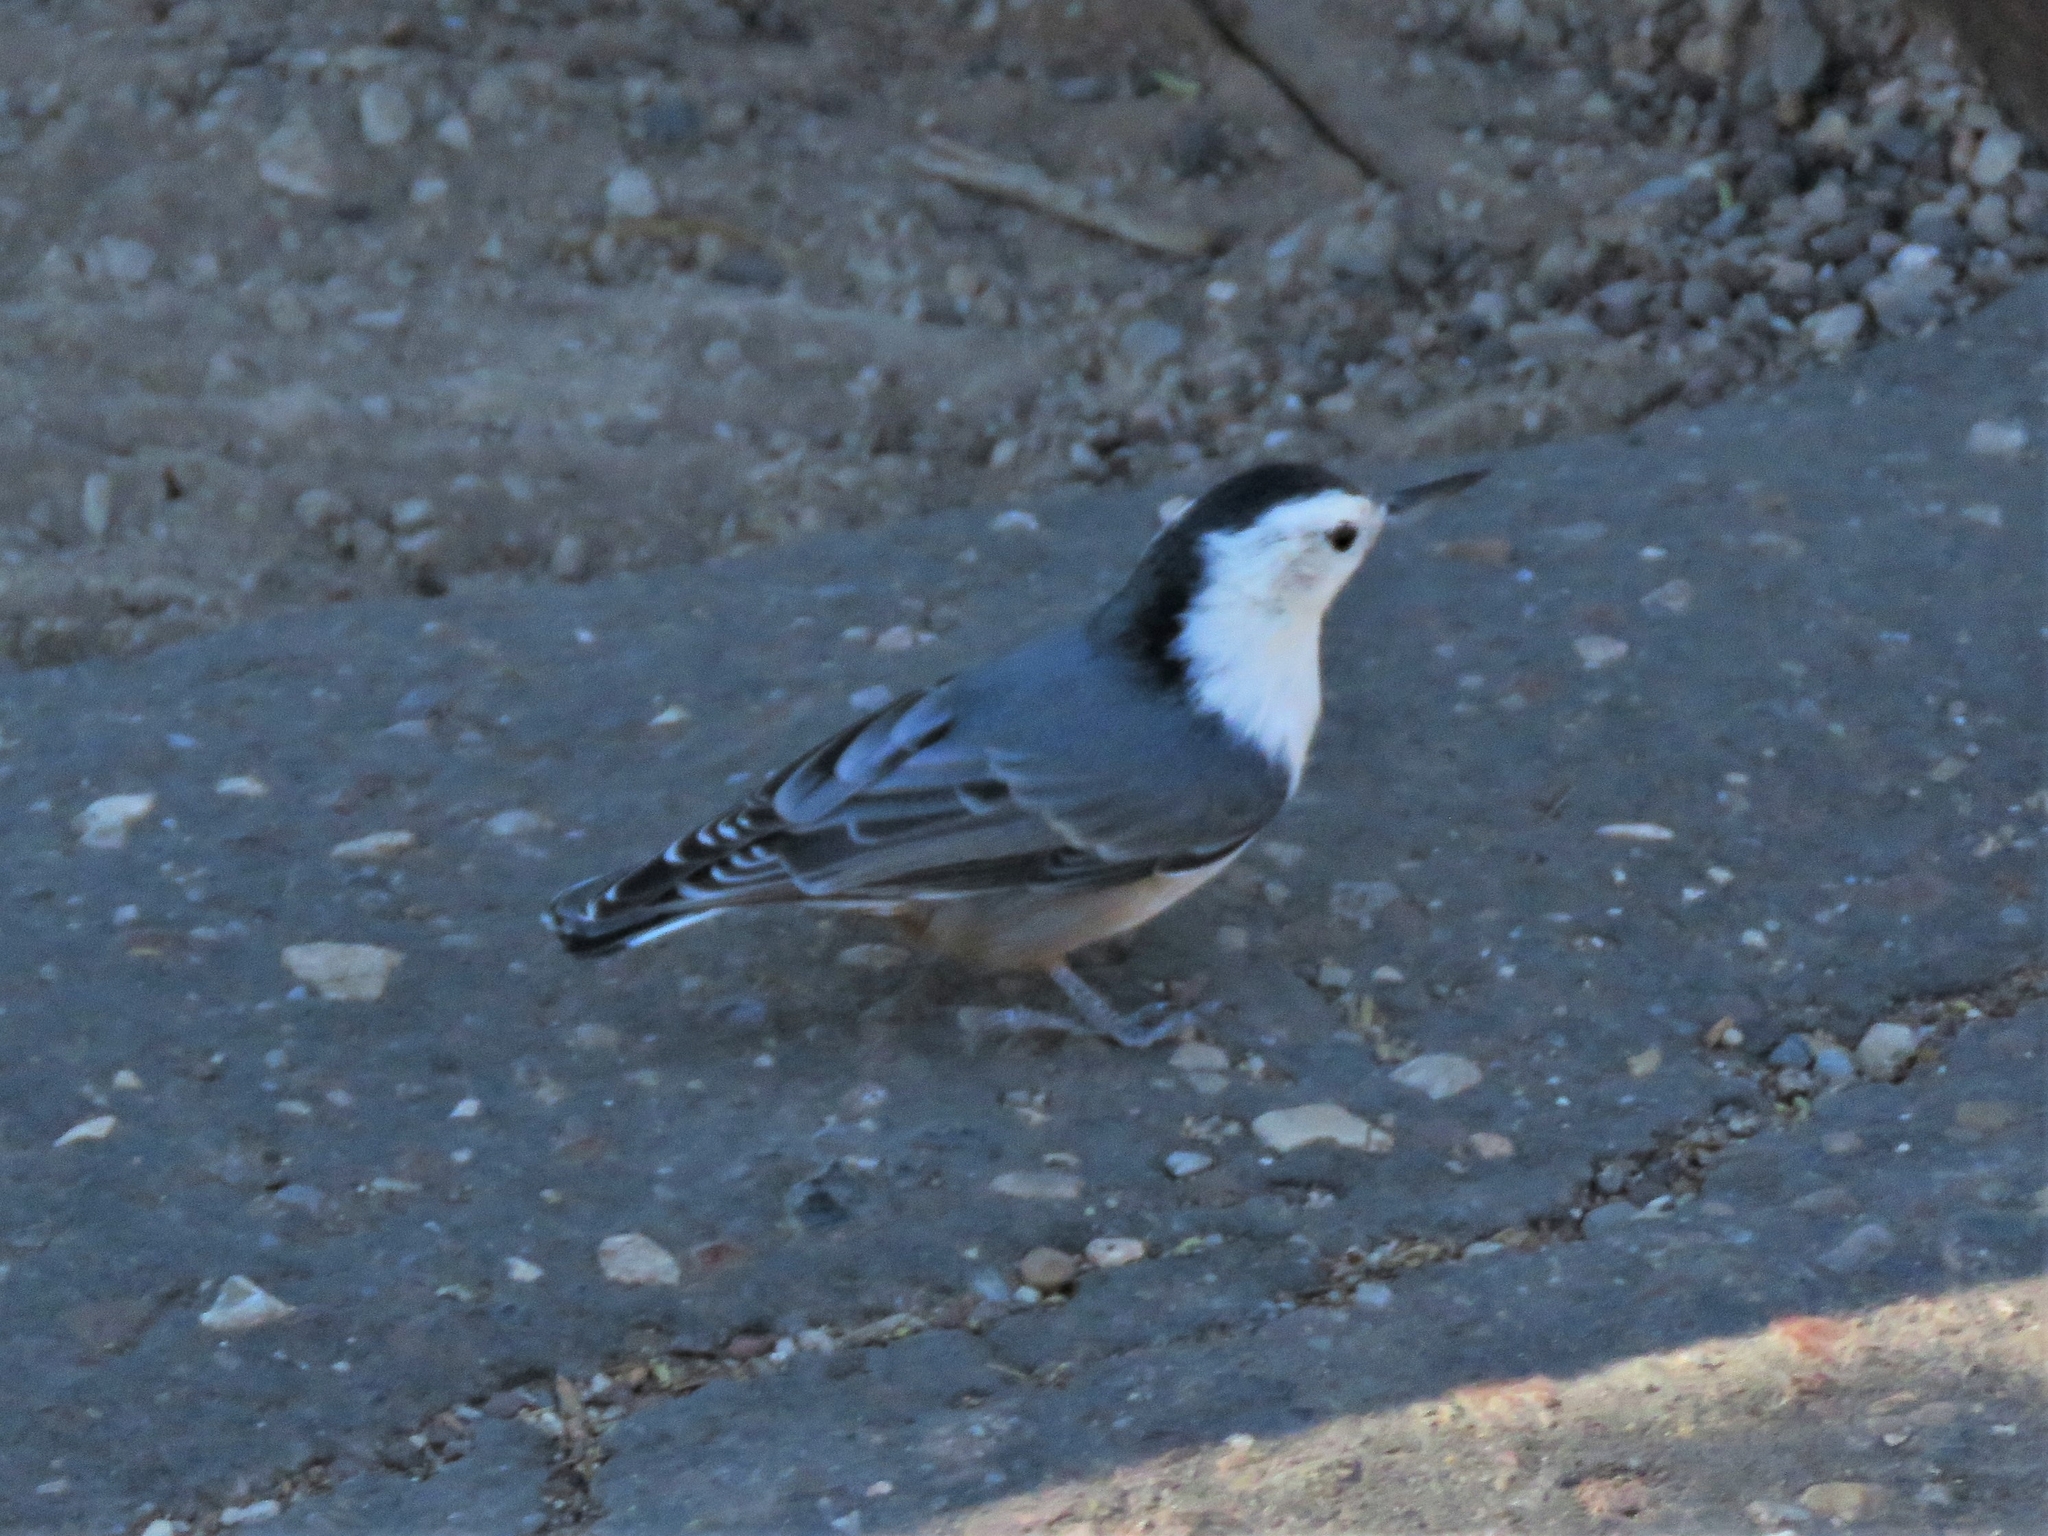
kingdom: Animalia
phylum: Chordata
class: Aves
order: Passeriformes
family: Sittidae
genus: Sitta
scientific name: Sitta carolinensis
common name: White-breasted nuthatch
